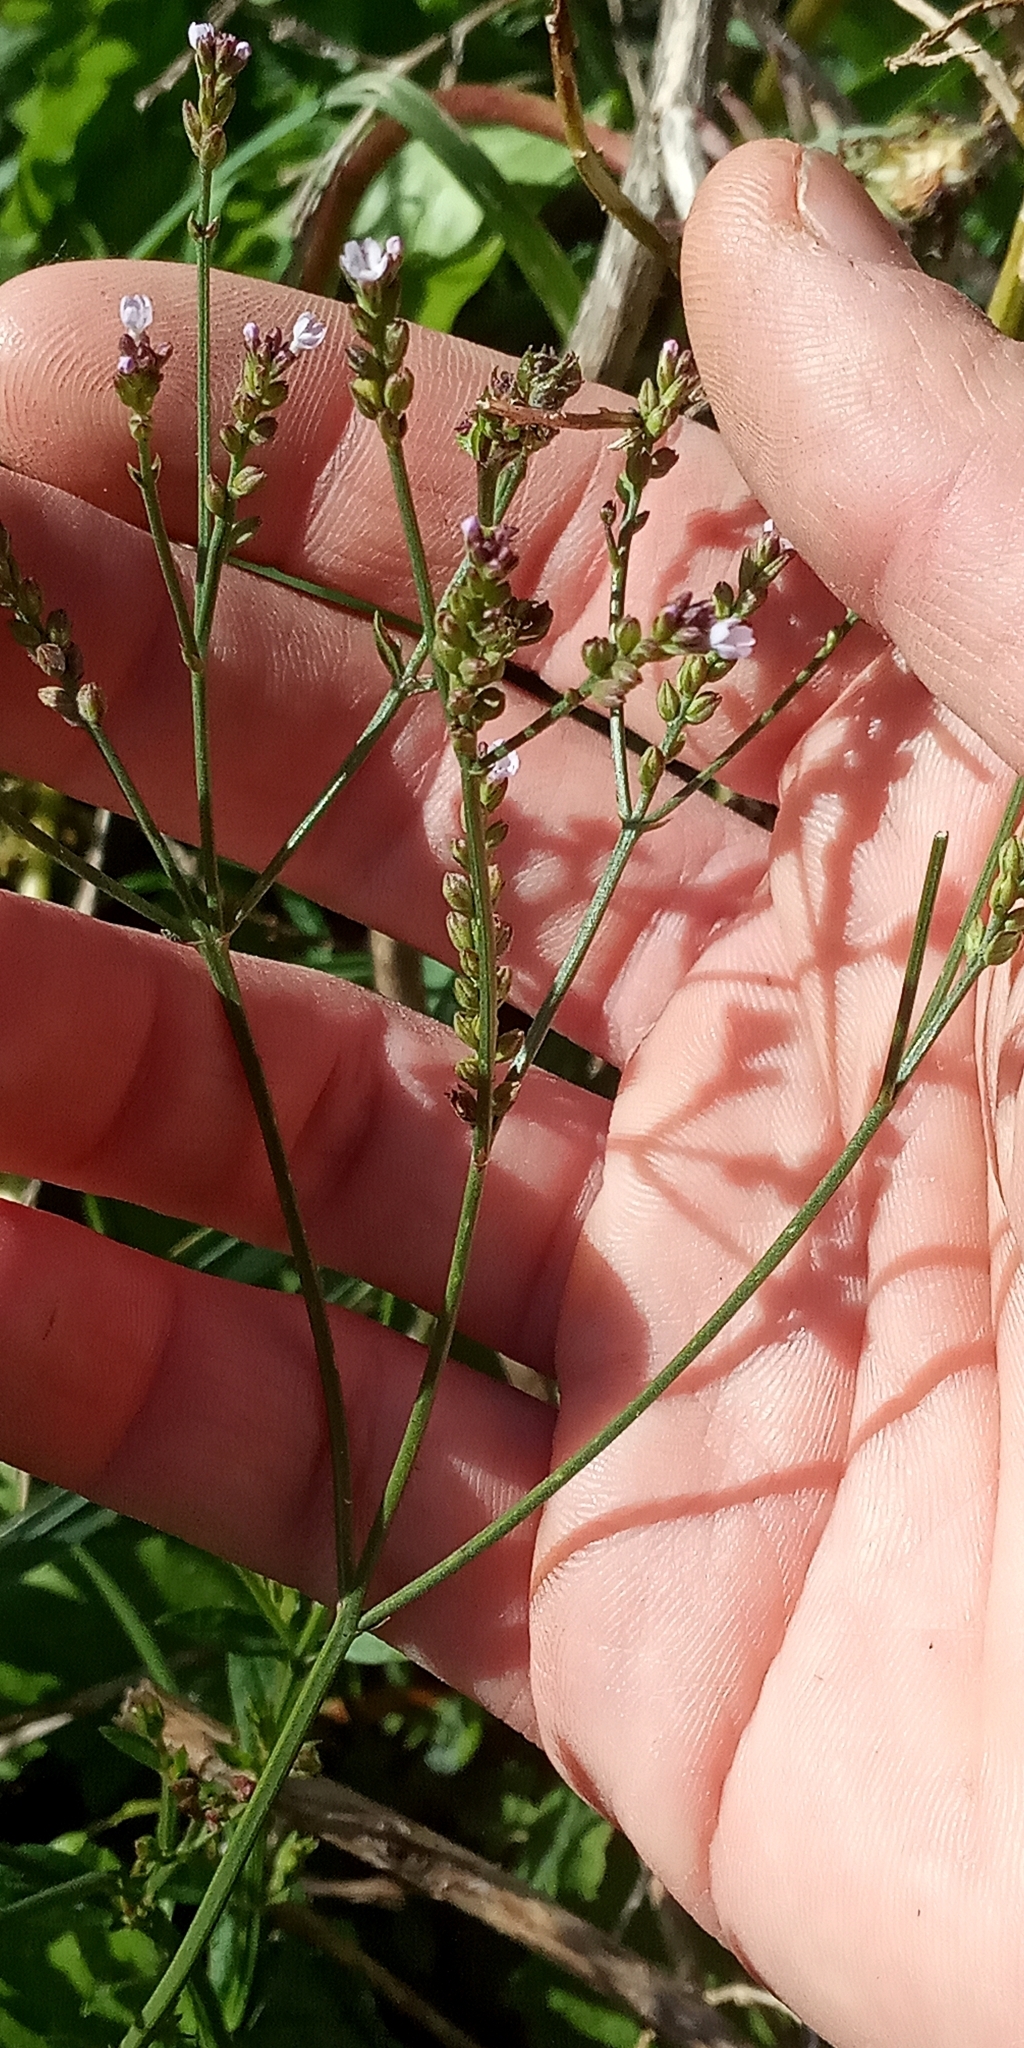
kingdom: Plantae
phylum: Tracheophyta
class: Magnoliopsida
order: Lamiales
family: Verbenaceae
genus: Verbena
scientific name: Verbena litoralis
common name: Seashore vervain
